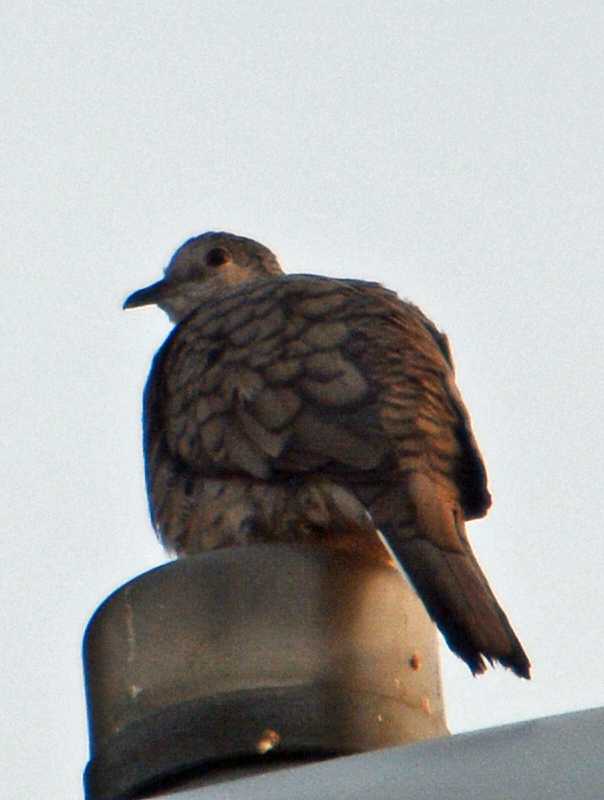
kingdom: Animalia
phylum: Chordata
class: Aves
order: Columbiformes
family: Columbidae
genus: Columbina
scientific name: Columbina inca
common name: Inca dove
